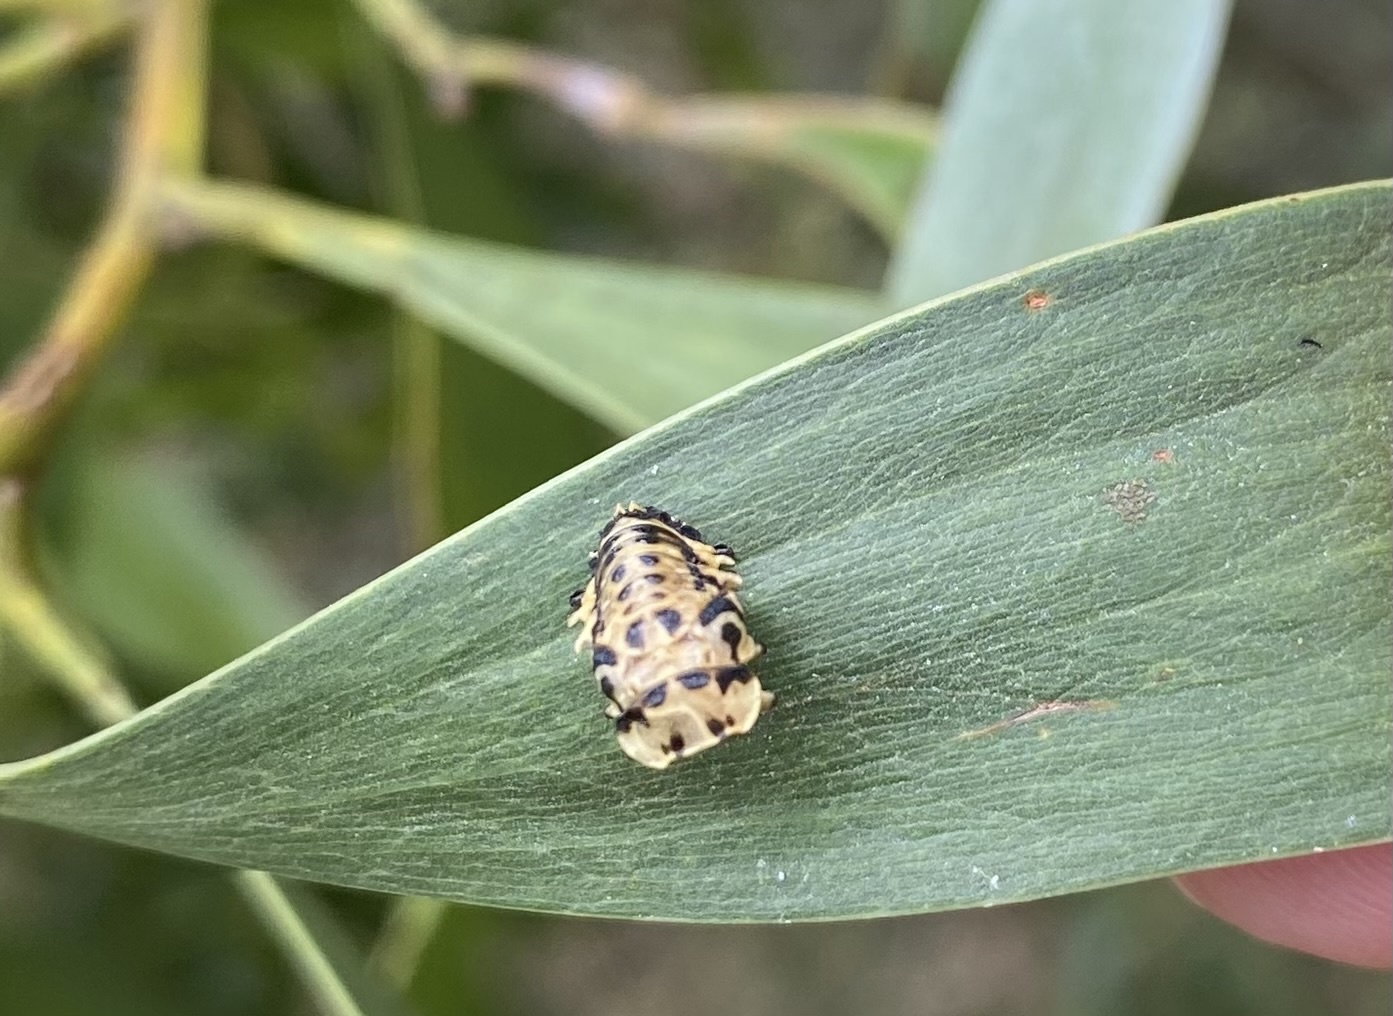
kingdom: Animalia
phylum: Arthropoda
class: Insecta
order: Coleoptera
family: Coccinellidae
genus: Cleobora
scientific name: Cleobora
